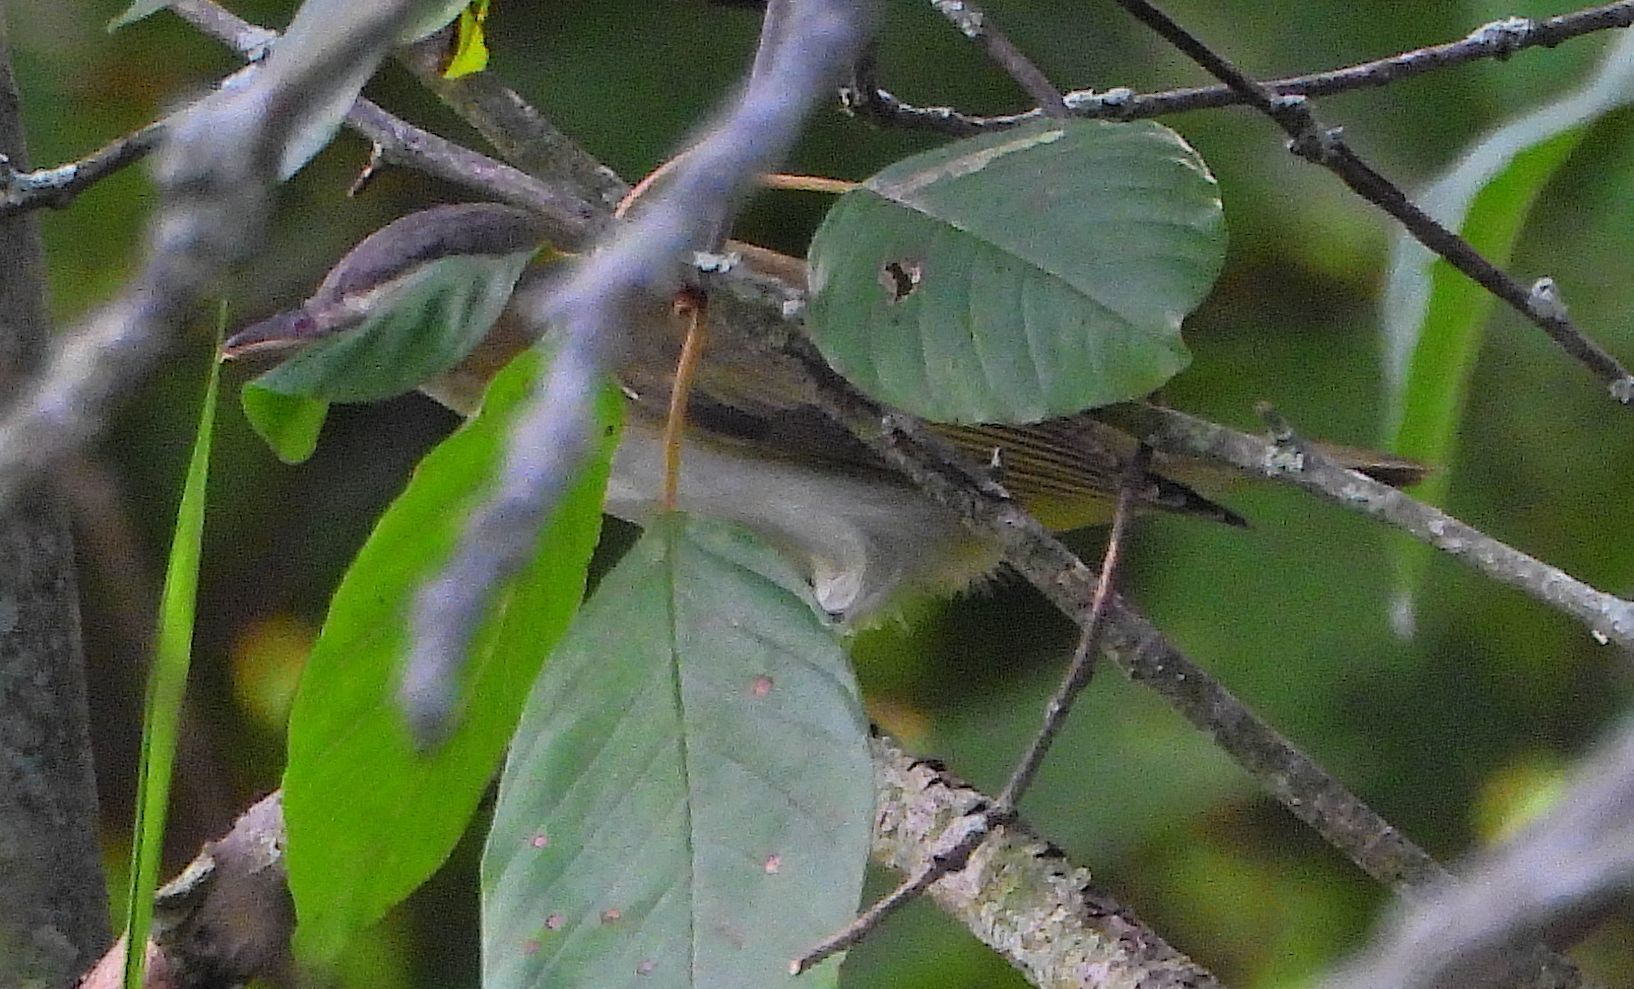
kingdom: Animalia
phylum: Chordata
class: Aves
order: Passeriformes
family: Vireonidae
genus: Vireo
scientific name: Vireo olivaceus
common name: Red-eyed vireo
